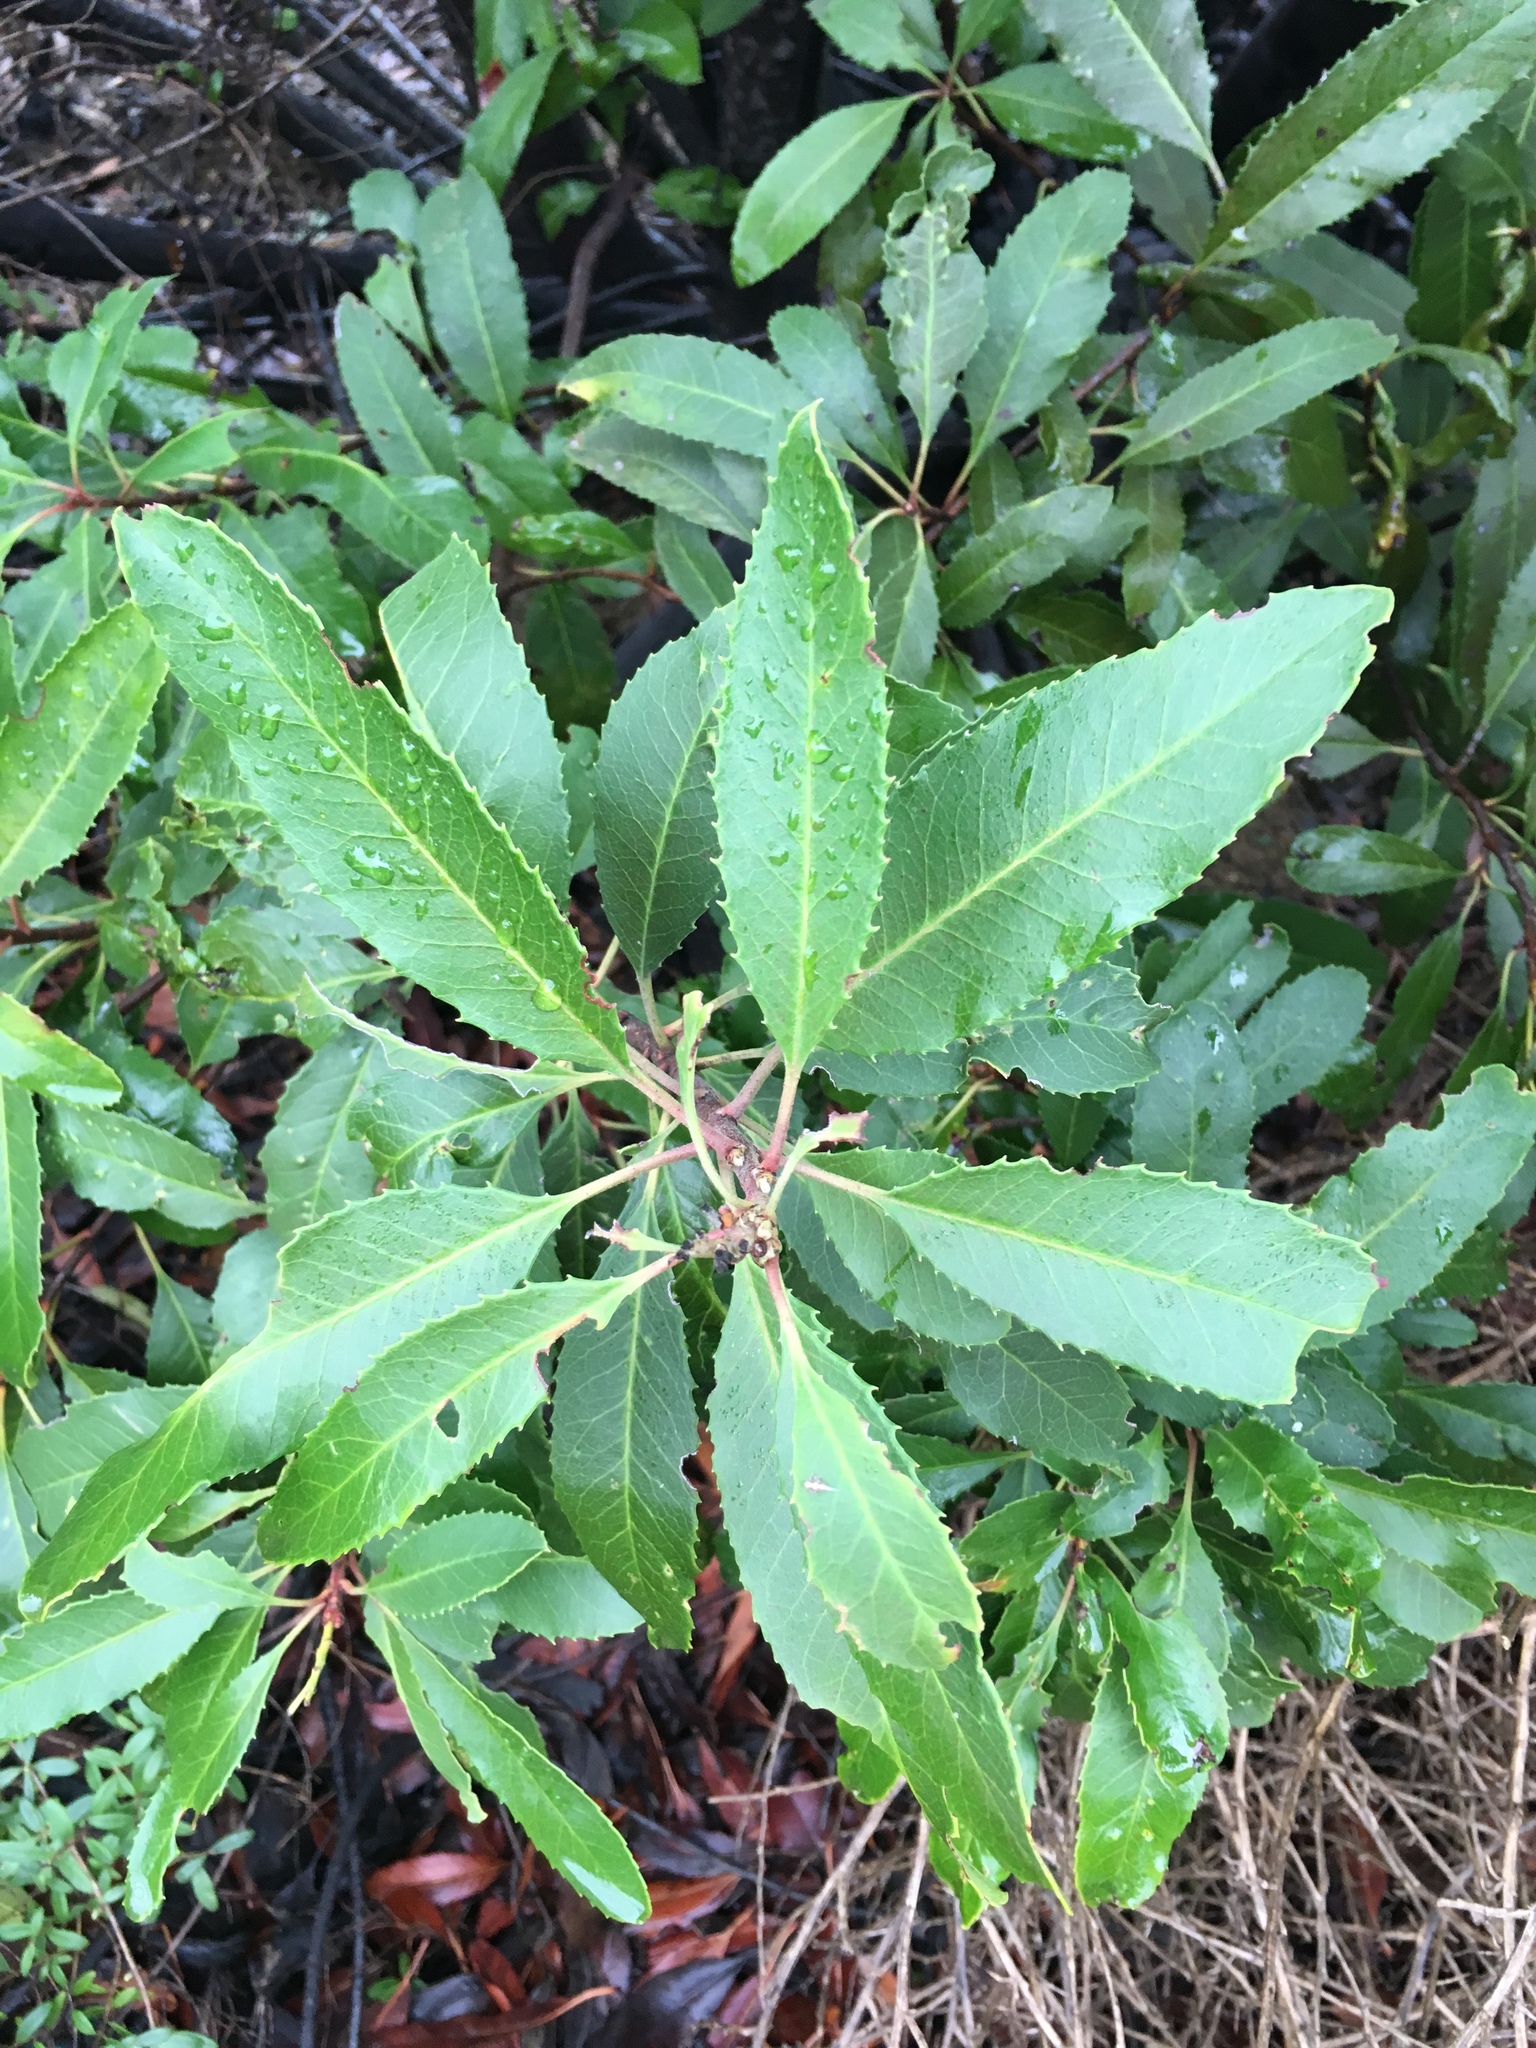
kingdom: Plantae
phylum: Tracheophyta
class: Magnoliopsida
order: Rosales
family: Rosaceae
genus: Heteromeles
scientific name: Heteromeles arbutifolia
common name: California-holly
